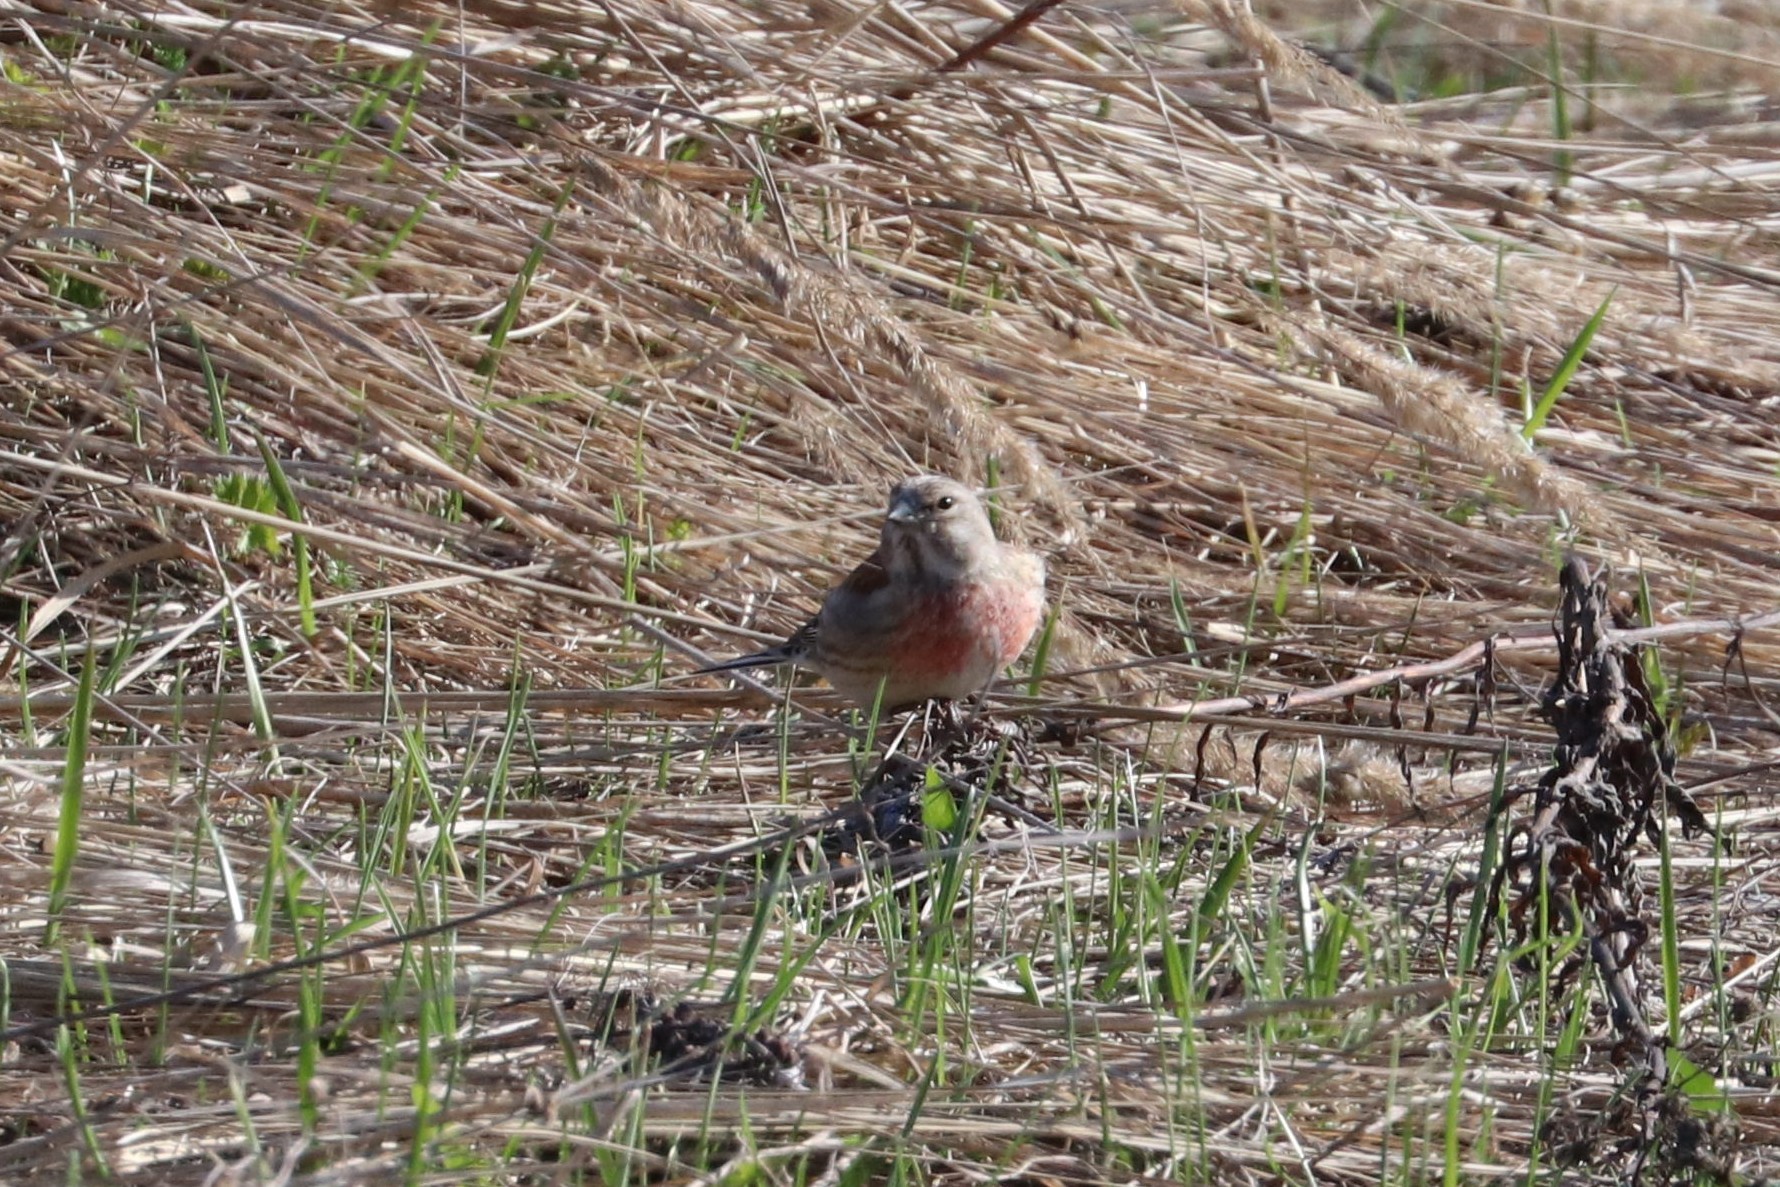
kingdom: Animalia
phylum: Chordata
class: Aves
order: Passeriformes
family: Fringillidae
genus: Linaria
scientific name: Linaria cannabina
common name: Common linnet
